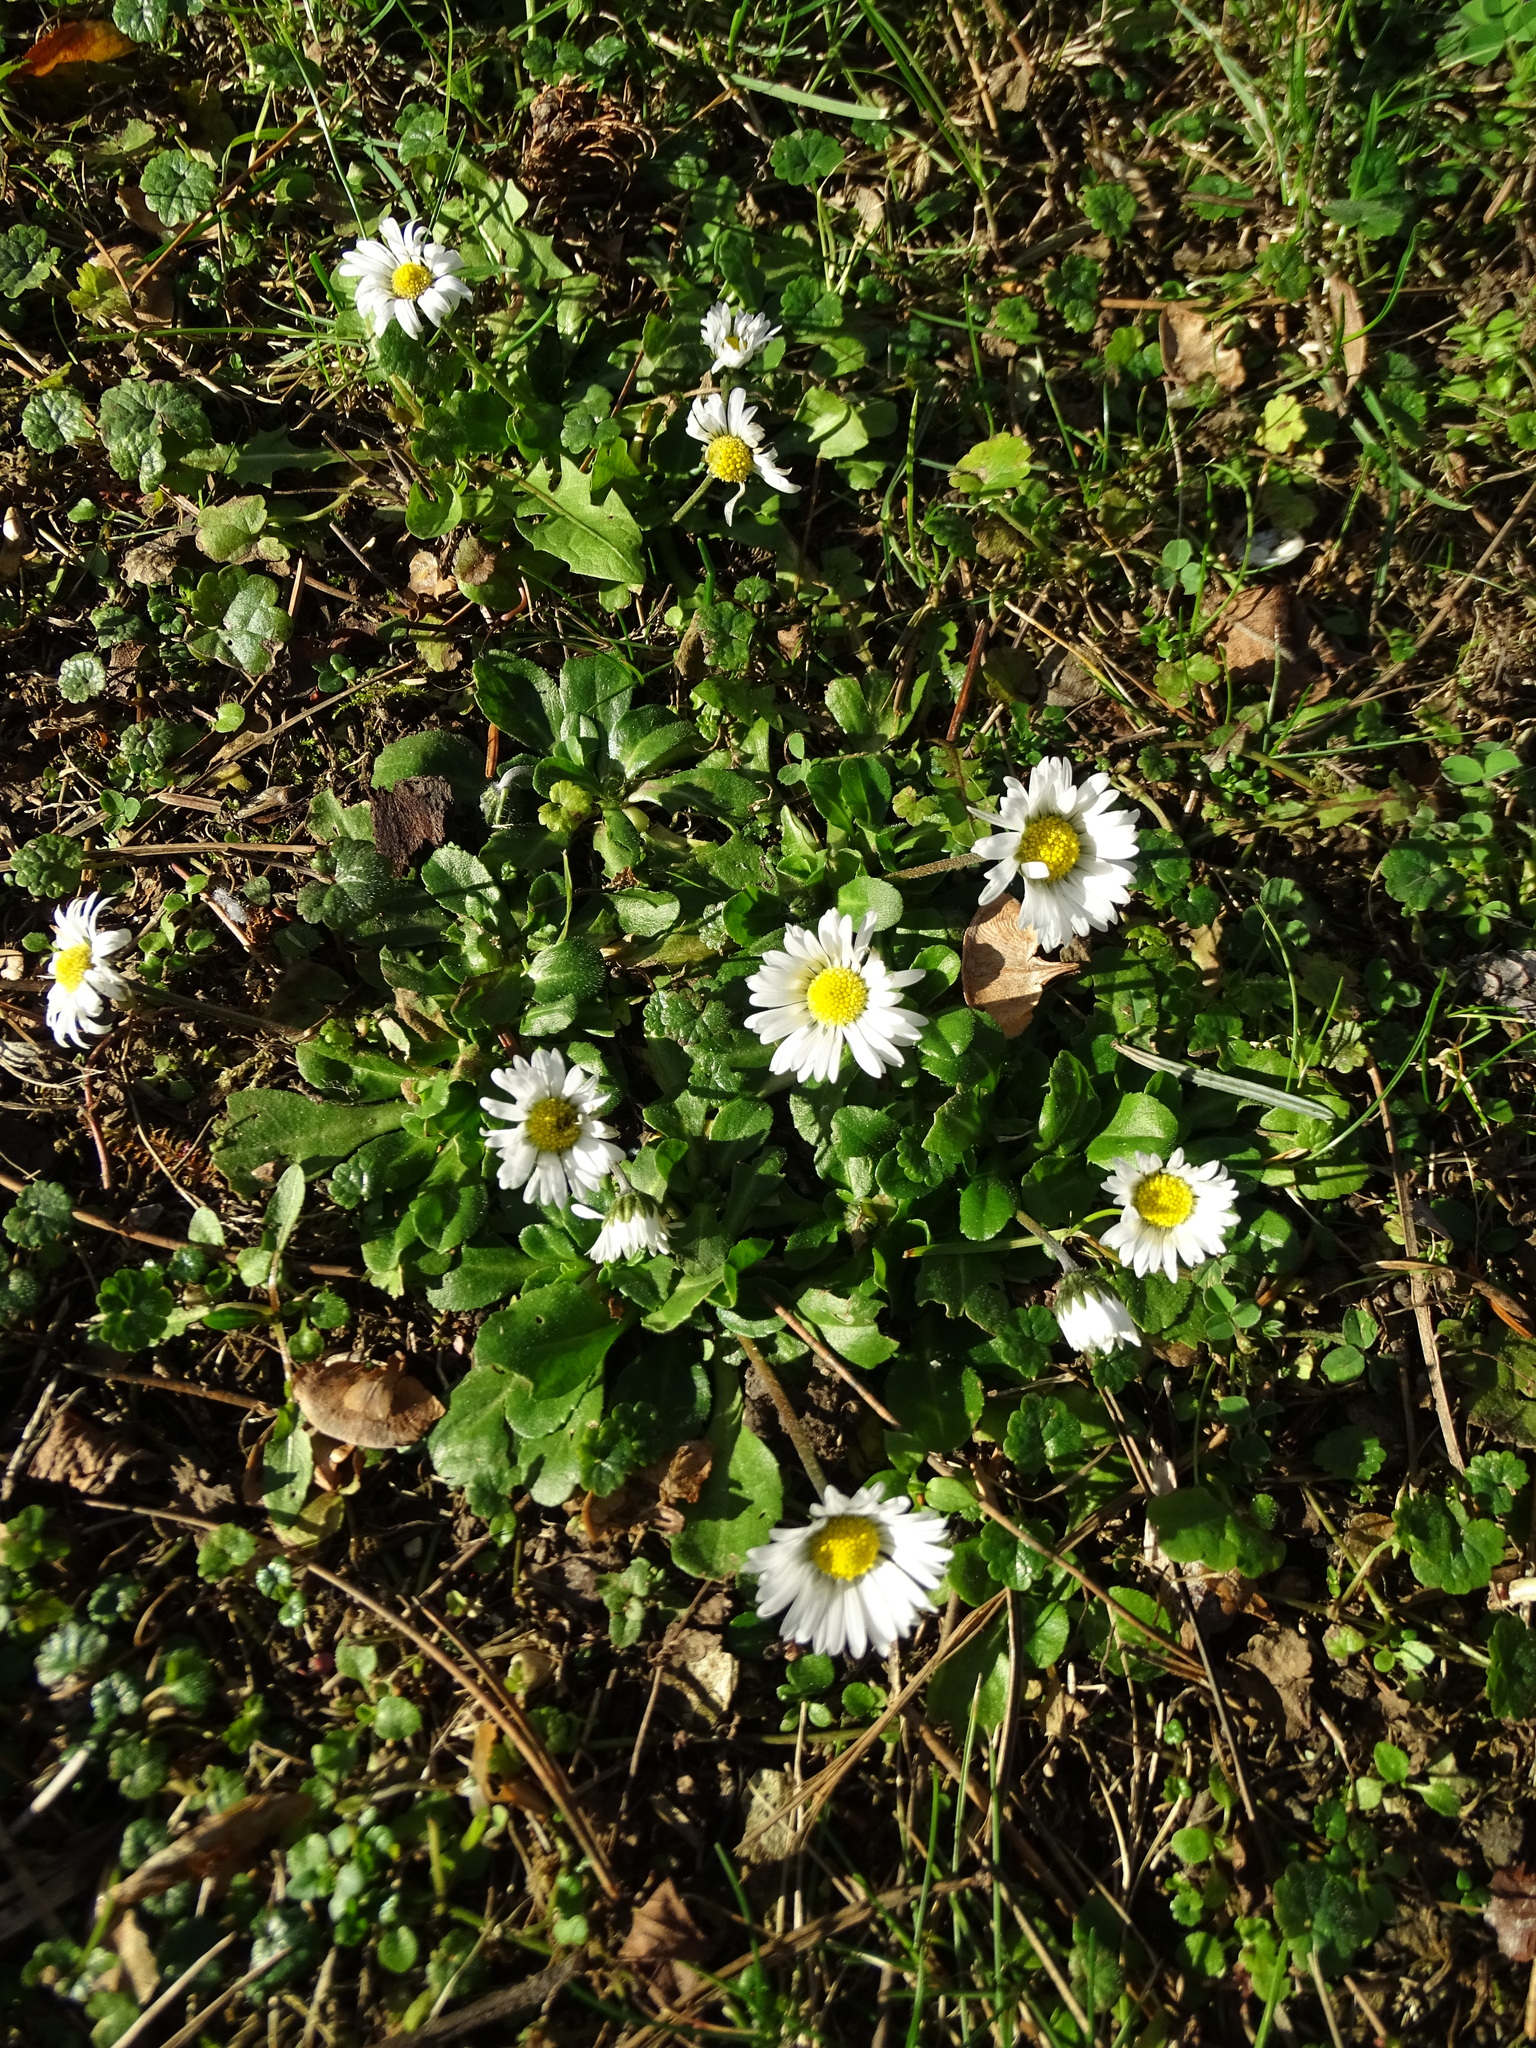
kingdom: Plantae
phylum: Tracheophyta
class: Magnoliopsida
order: Asterales
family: Asteraceae
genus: Bellis
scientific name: Bellis perennis
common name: Lawndaisy
